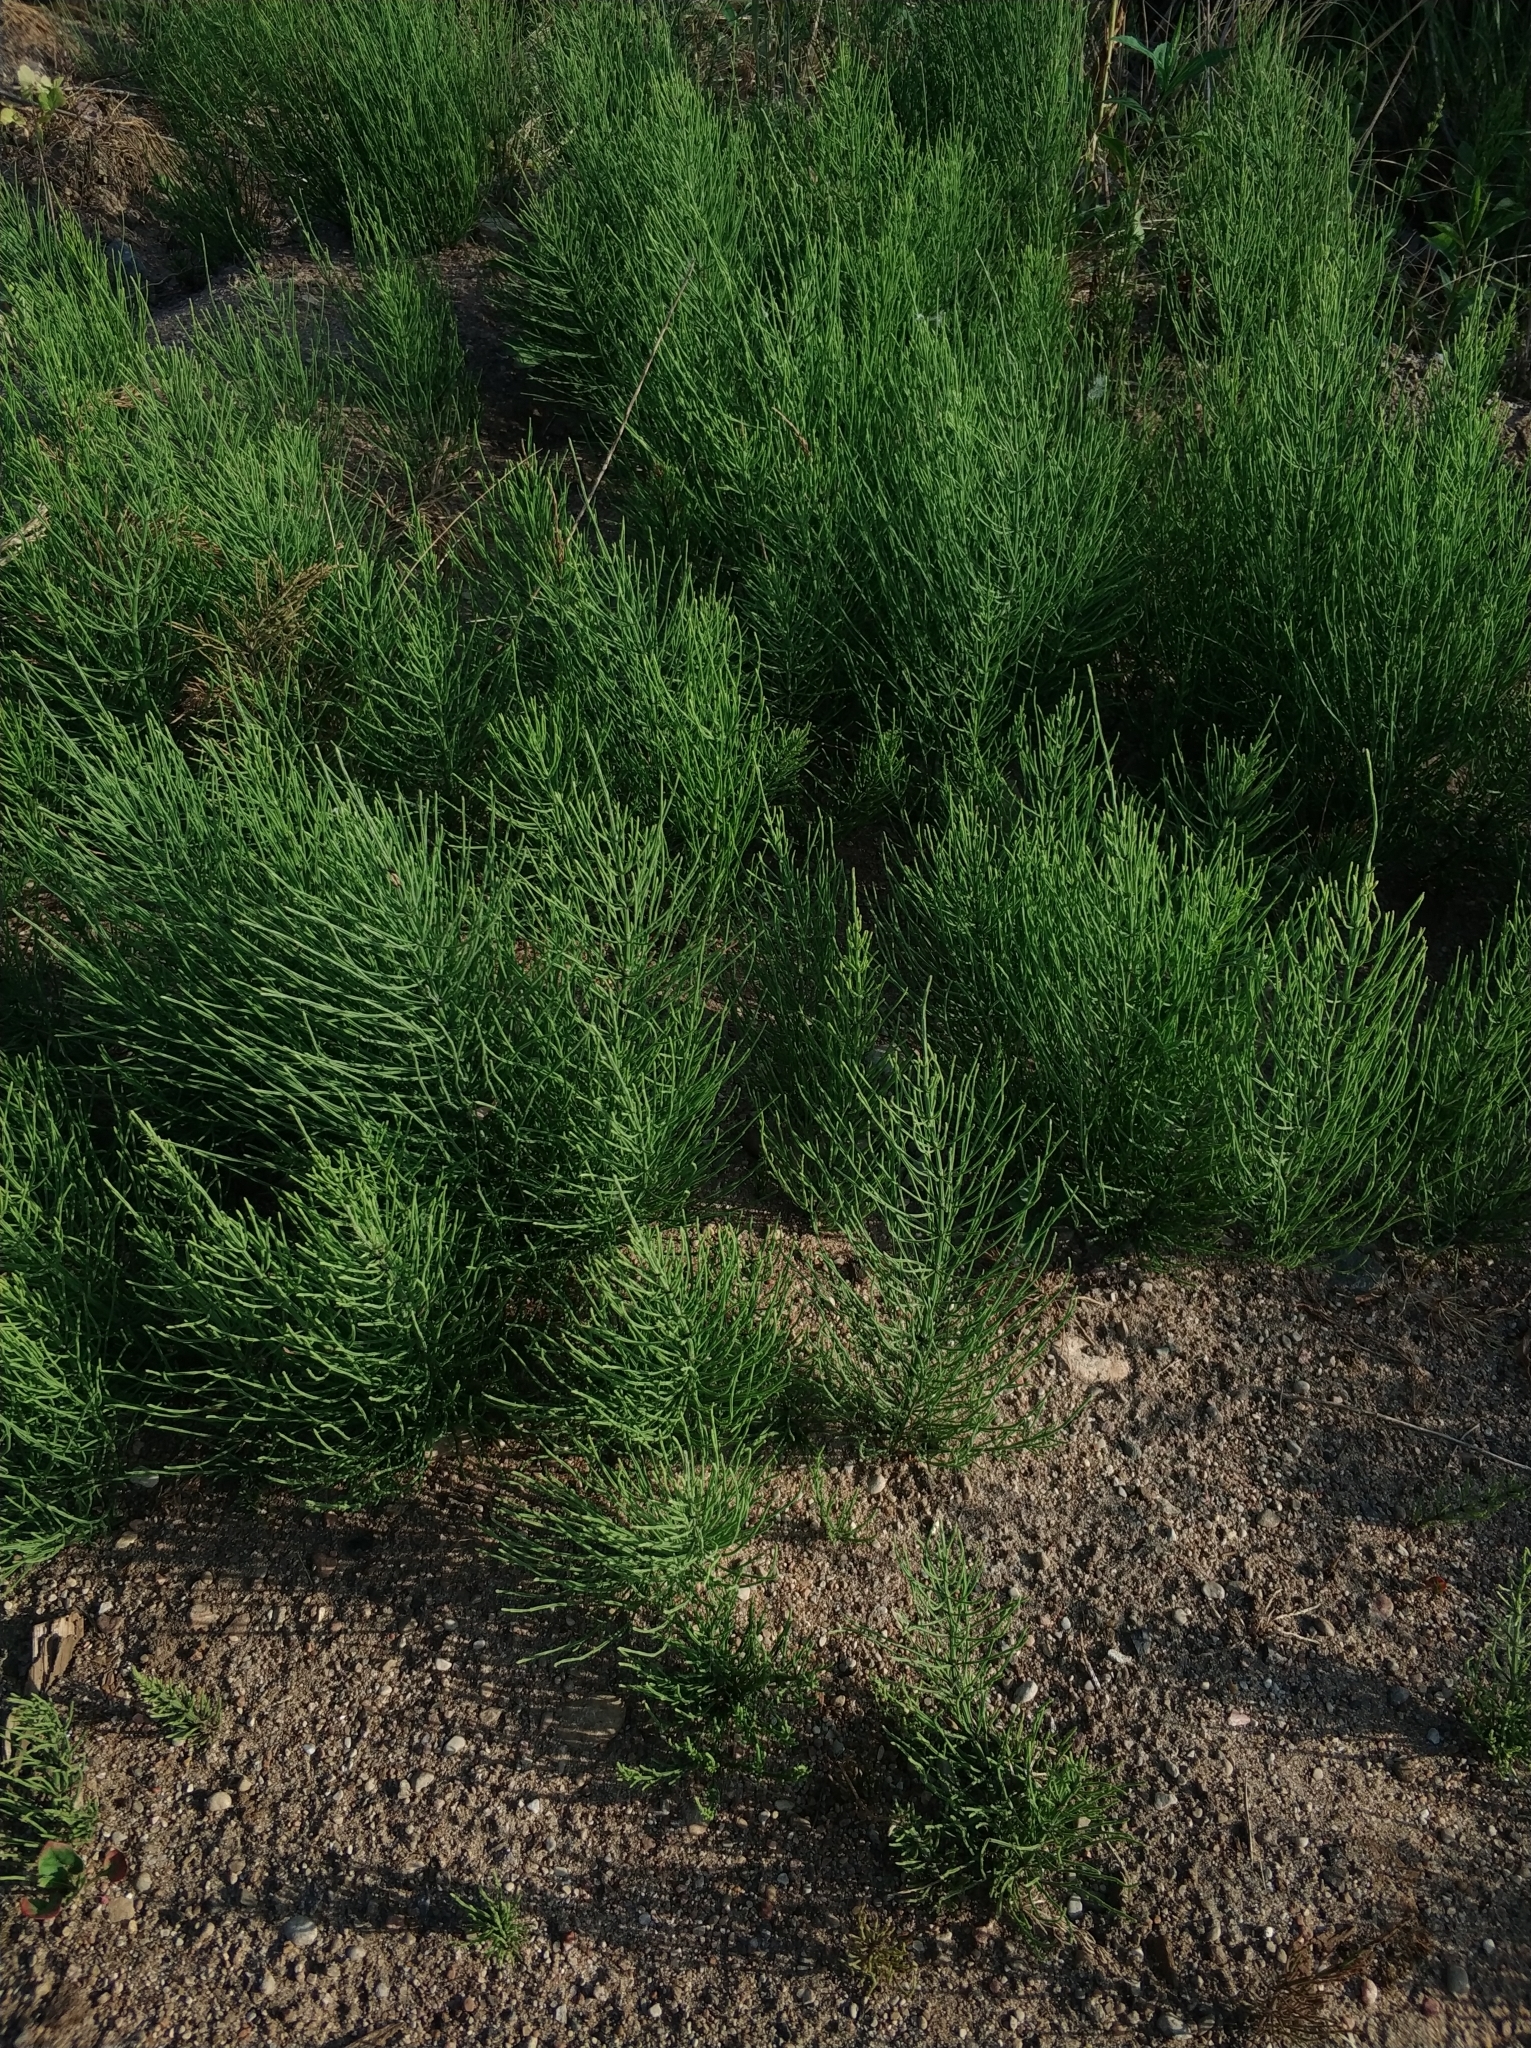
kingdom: Plantae
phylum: Tracheophyta
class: Polypodiopsida
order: Equisetales
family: Equisetaceae
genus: Equisetum
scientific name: Equisetum arvense
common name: Field horsetail
